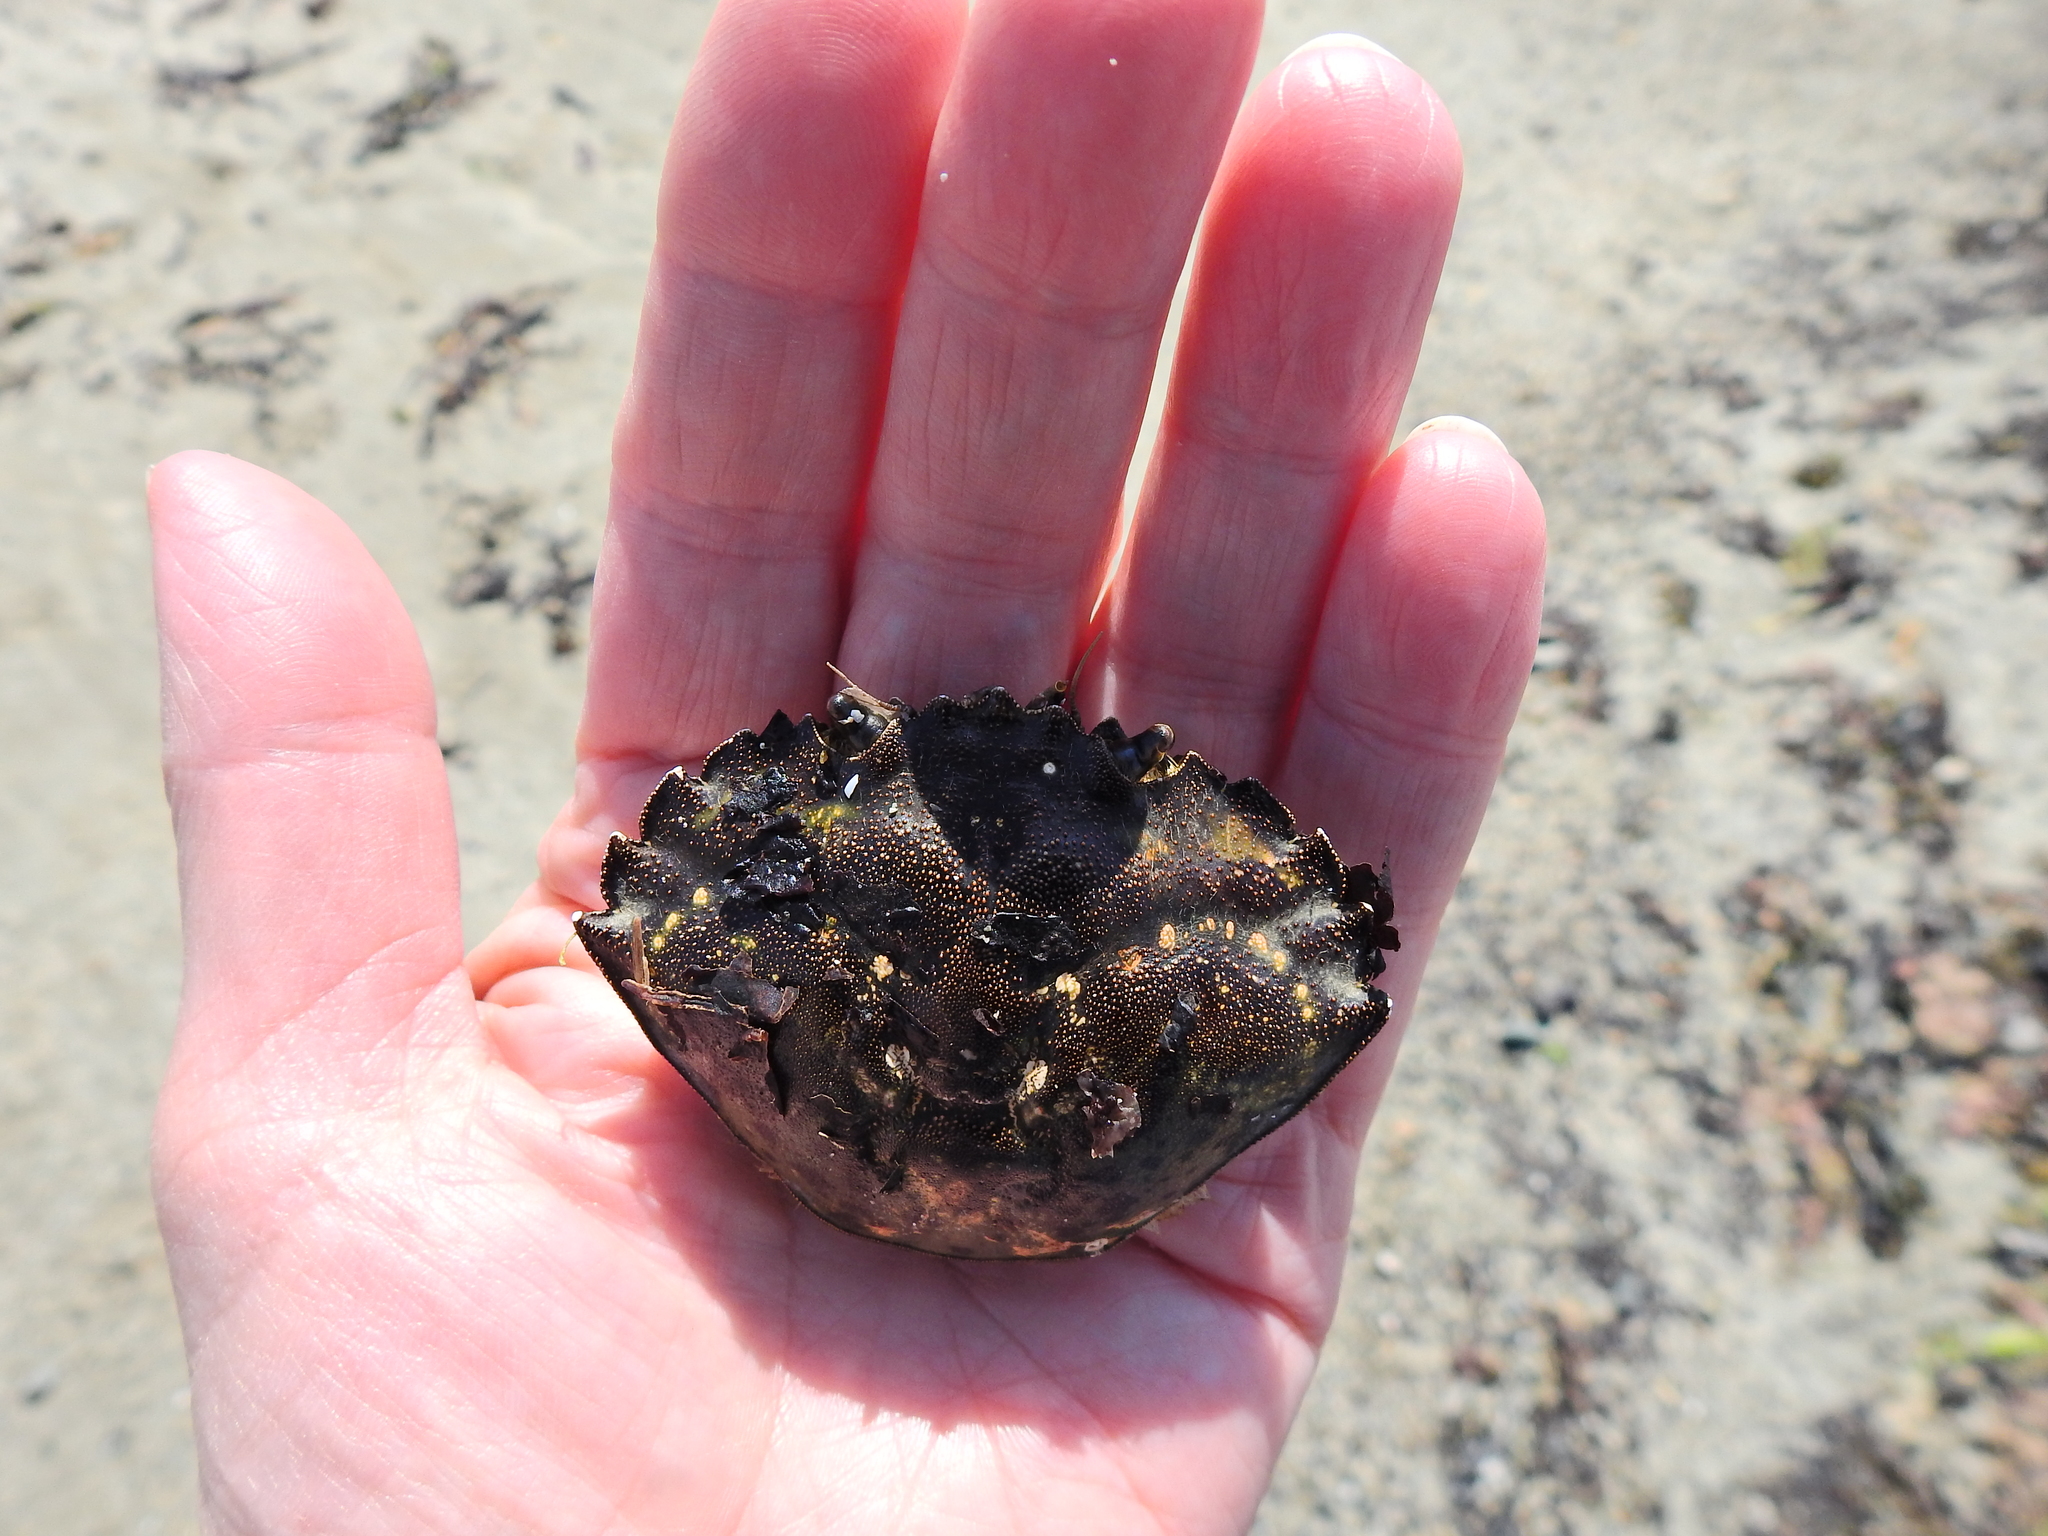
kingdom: Animalia
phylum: Arthropoda
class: Malacostraca
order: Decapoda
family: Carcinidae
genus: Carcinus
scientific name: Carcinus maenas
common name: European green crab
